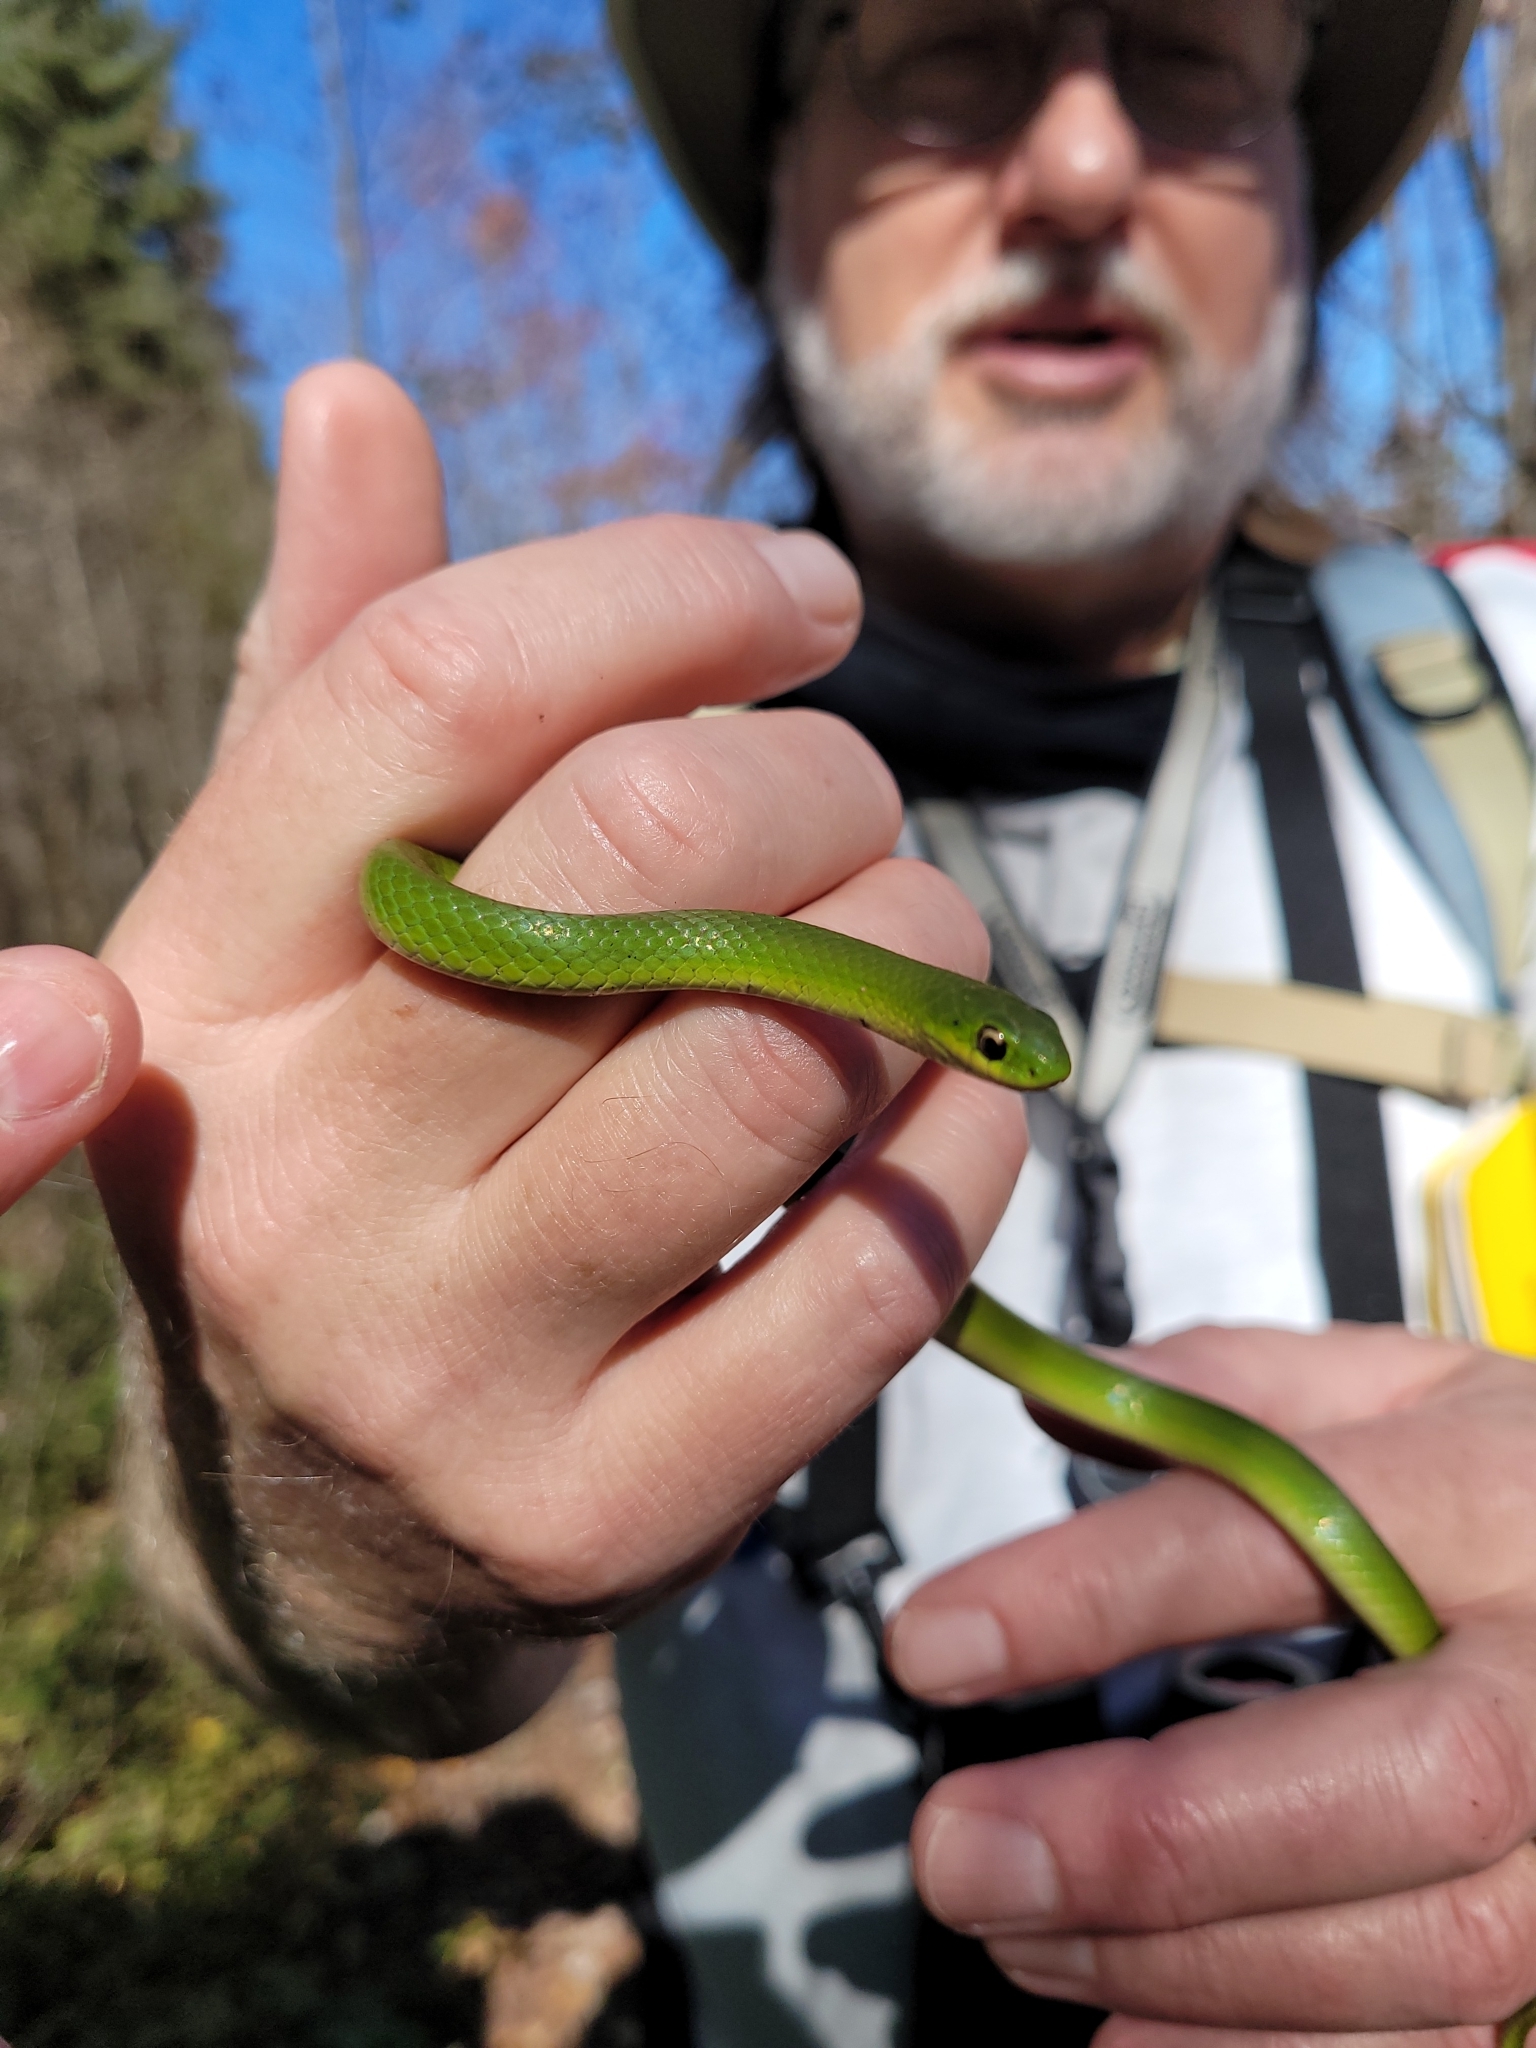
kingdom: Animalia
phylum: Chordata
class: Squamata
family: Colubridae
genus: Opheodrys
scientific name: Opheodrys vernalis
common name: Smooth green snake
